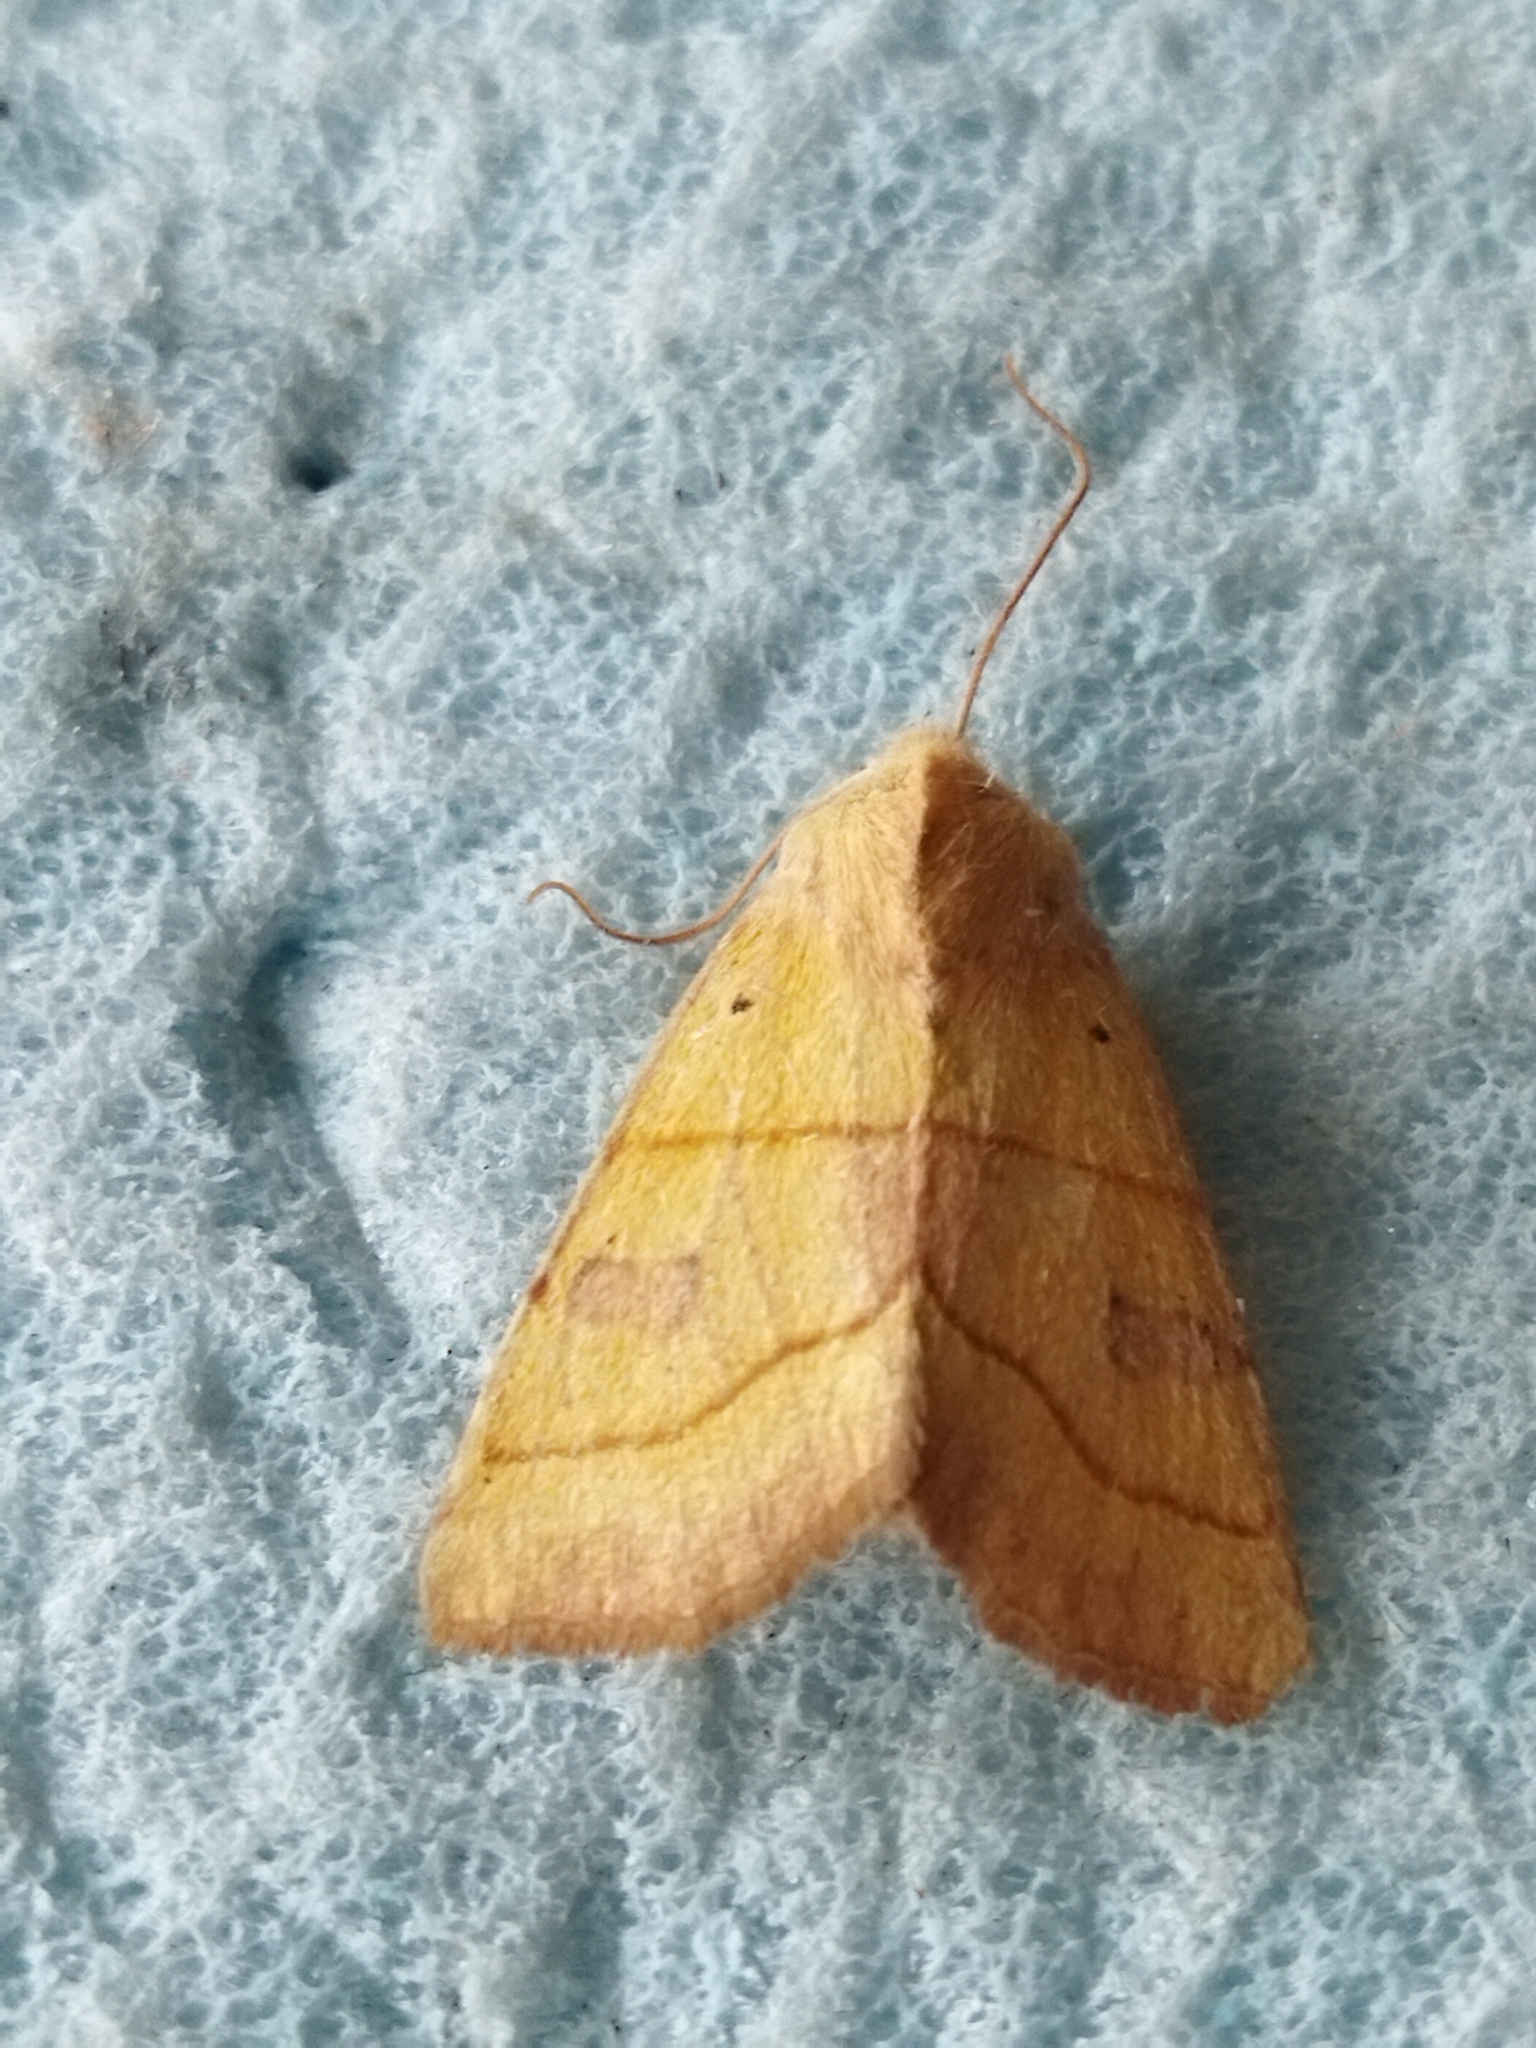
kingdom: Animalia
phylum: Arthropoda
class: Insecta
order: Lepidoptera
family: Noctuidae
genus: Atethmia
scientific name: Atethmia centrago
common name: Centre-barred sallow
